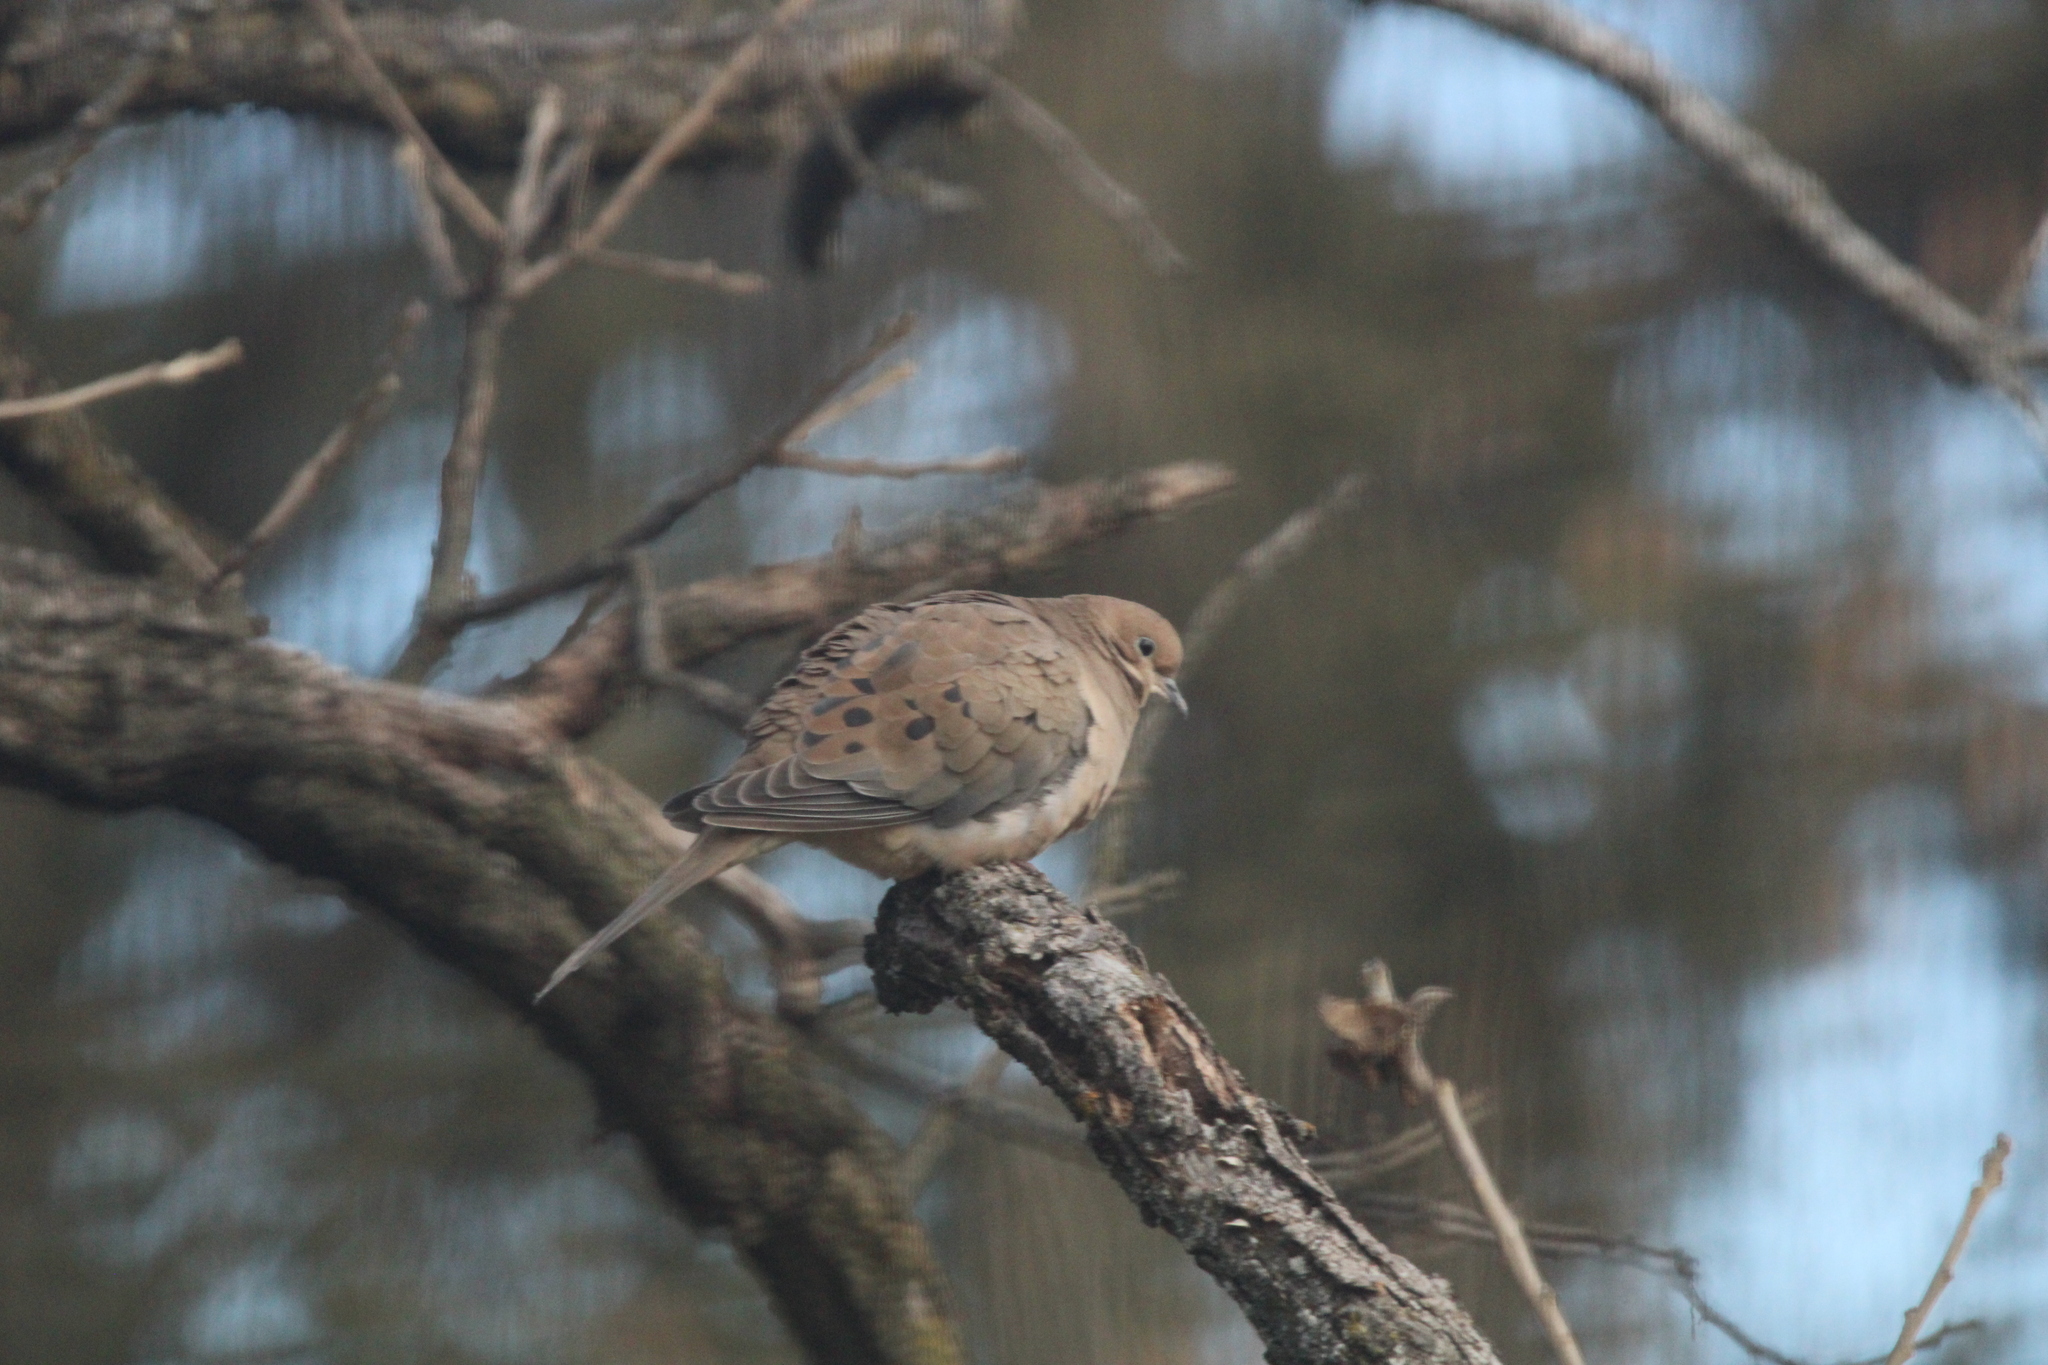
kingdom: Animalia
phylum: Chordata
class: Aves
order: Columbiformes
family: Columbidae
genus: Zenaida
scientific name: Zenaida macroura
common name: Mourning dove
